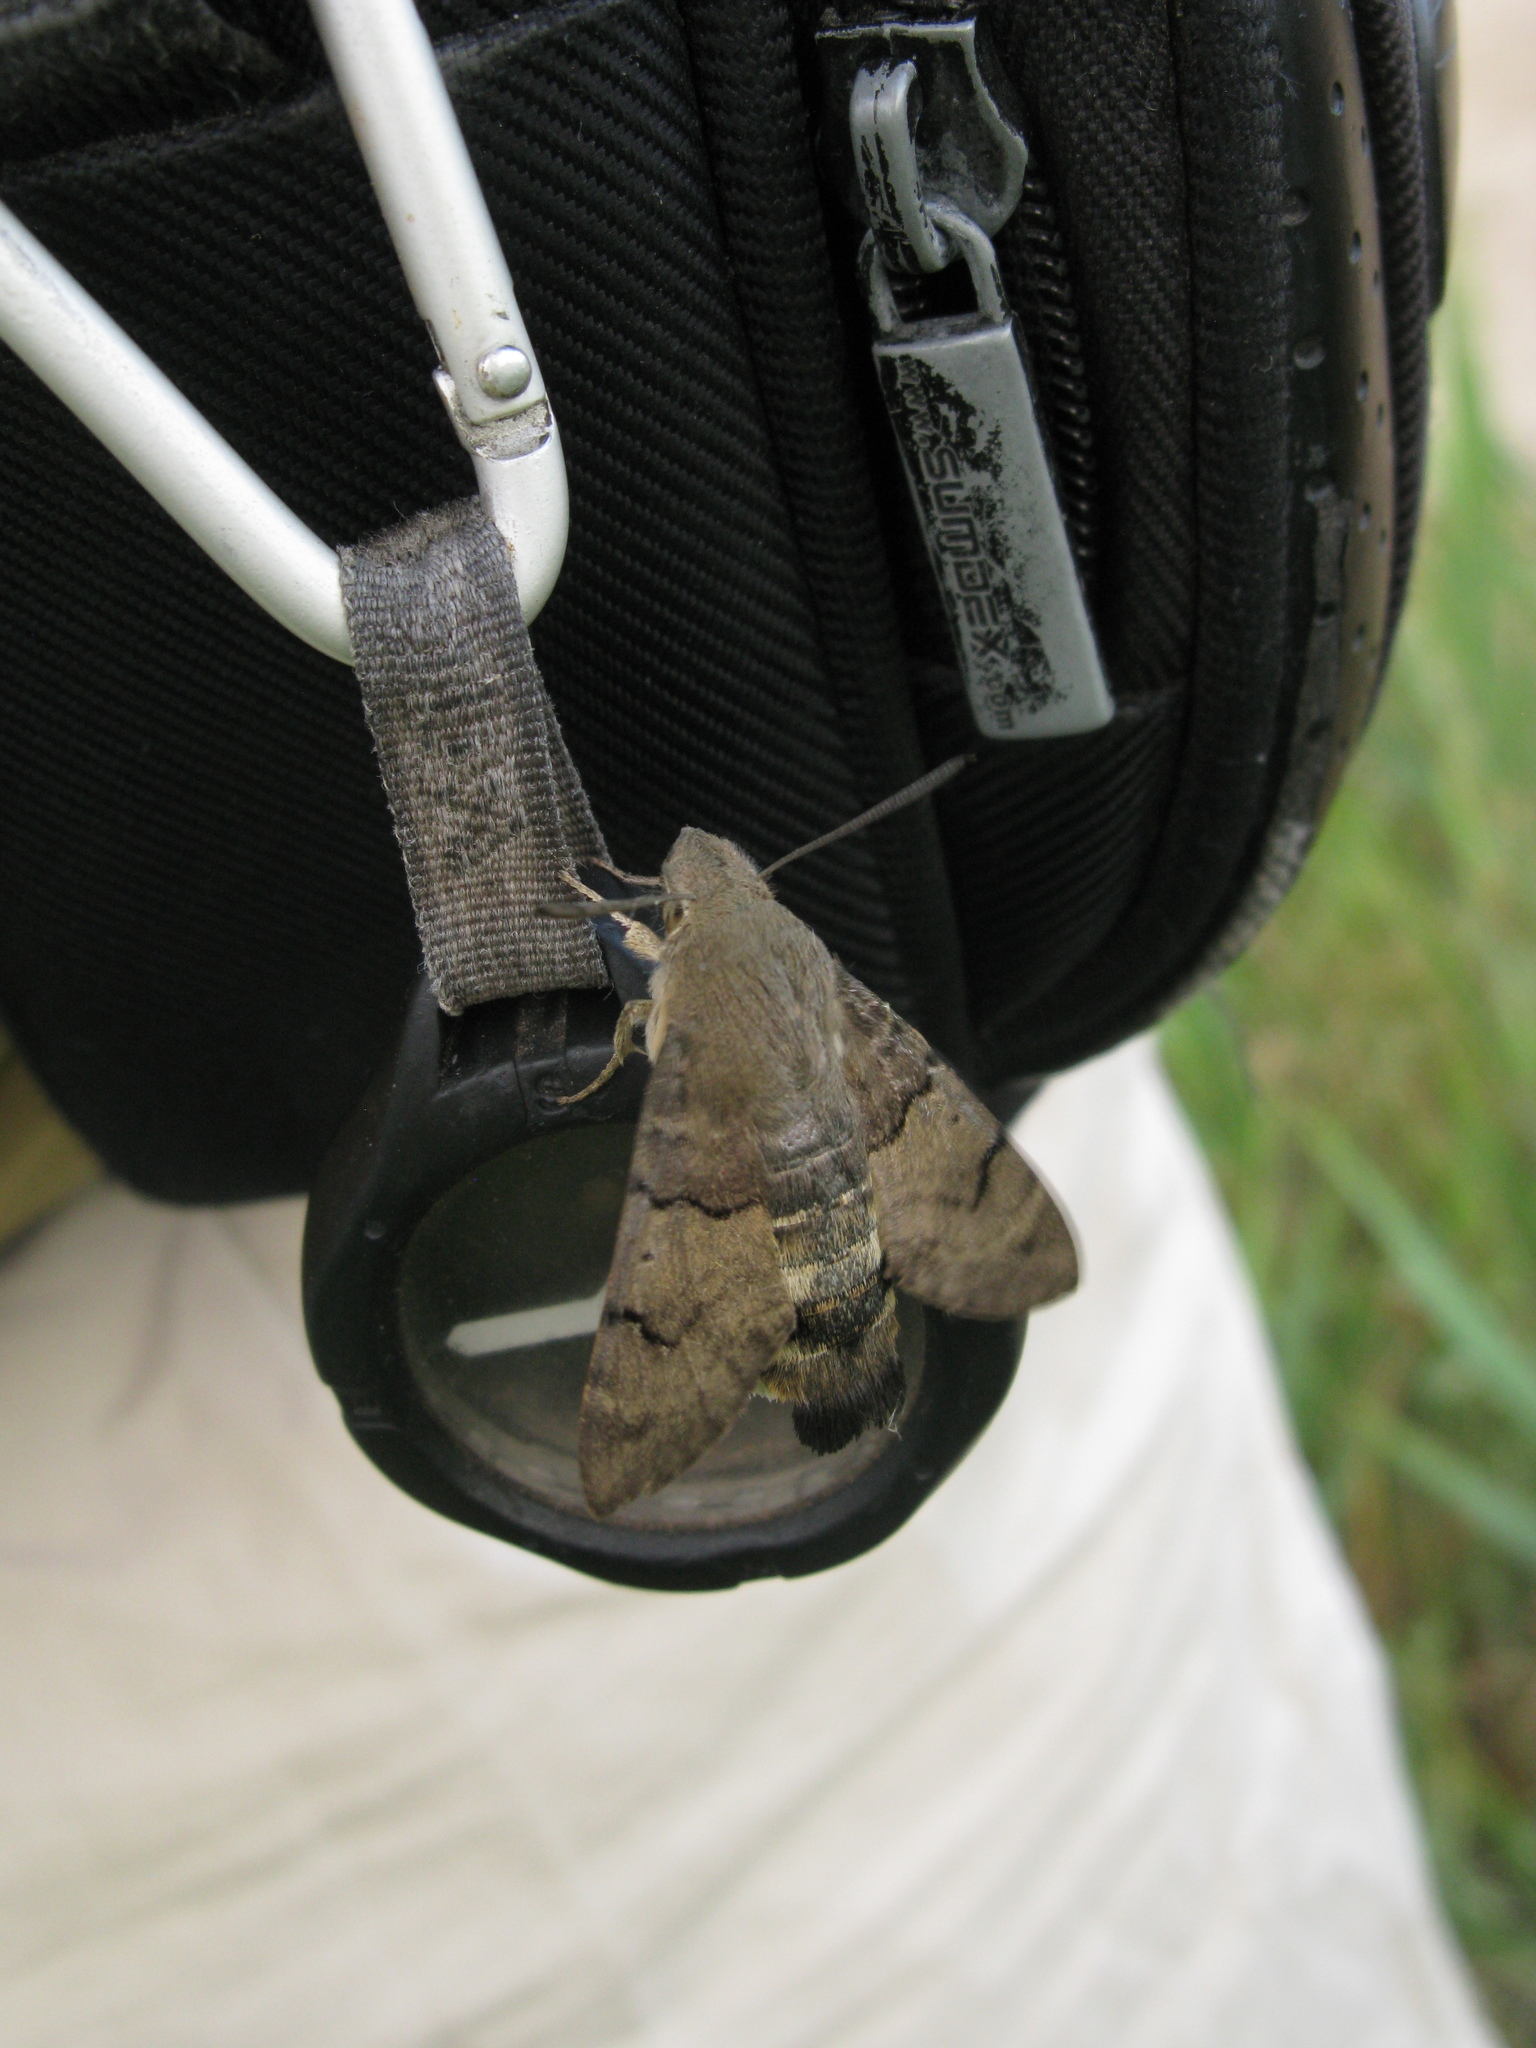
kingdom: Animalia
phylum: Arthropoda
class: Insecta
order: Lepidoptera
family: Sphingidae
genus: Macroglossum
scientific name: Macroglossum stellatarum
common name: Humming-bird hawk-moth
